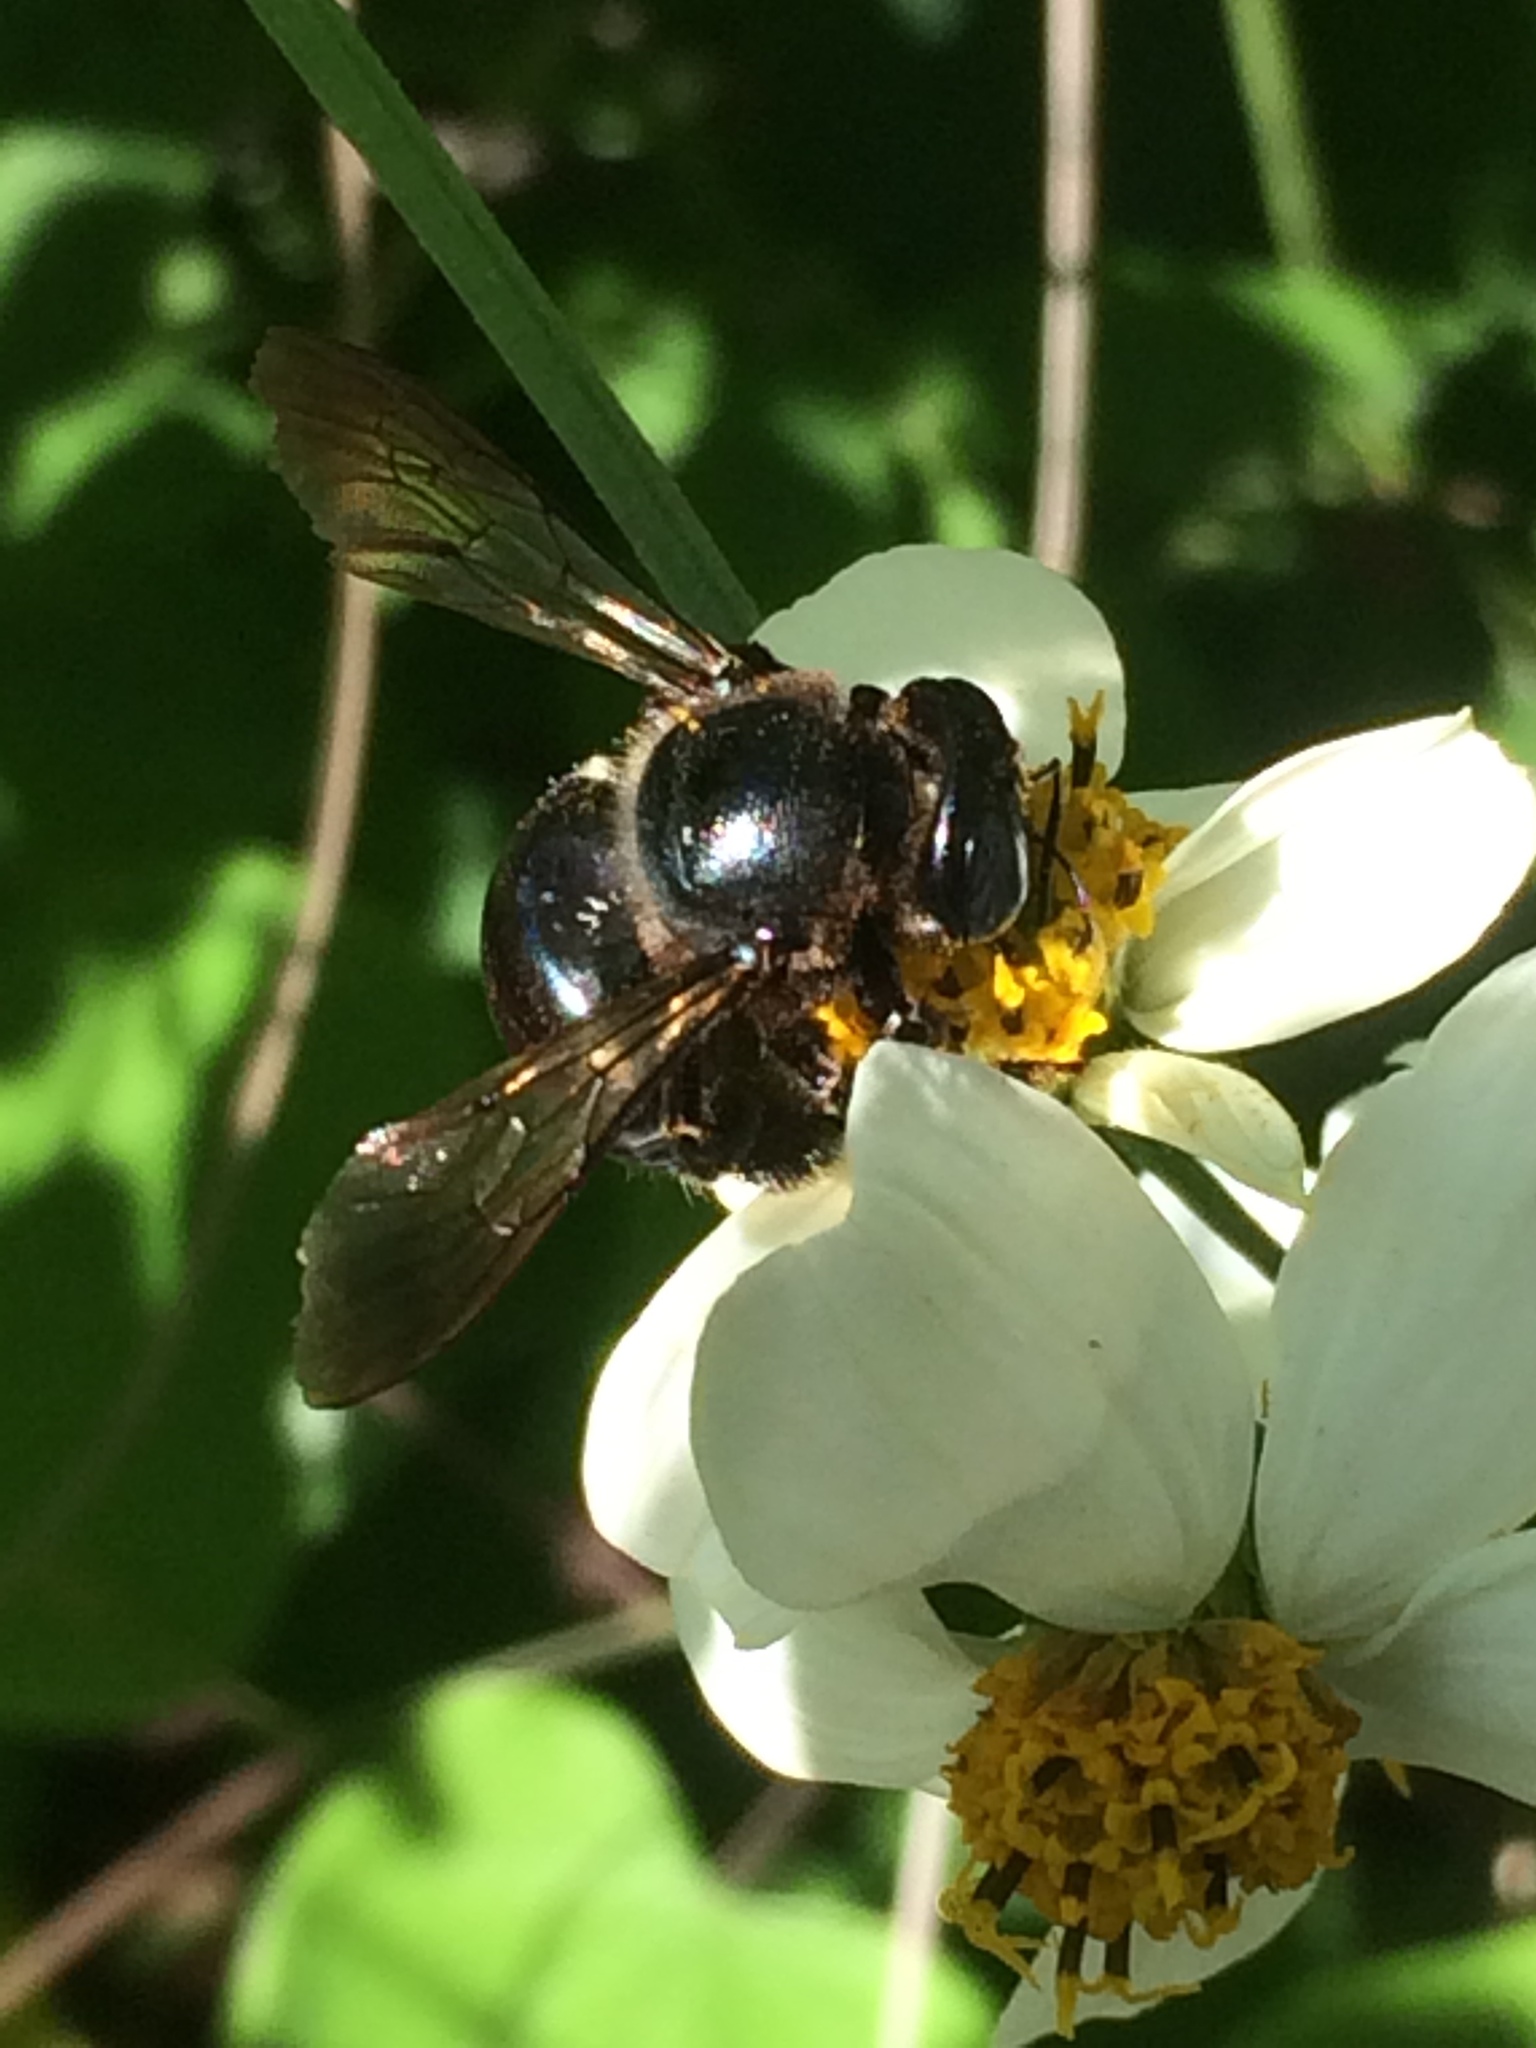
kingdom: Animalia
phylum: Arthropoda
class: Insecta
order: Hymenoptera
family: Apidae
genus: Xylocopa
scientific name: Xylocopa micans
